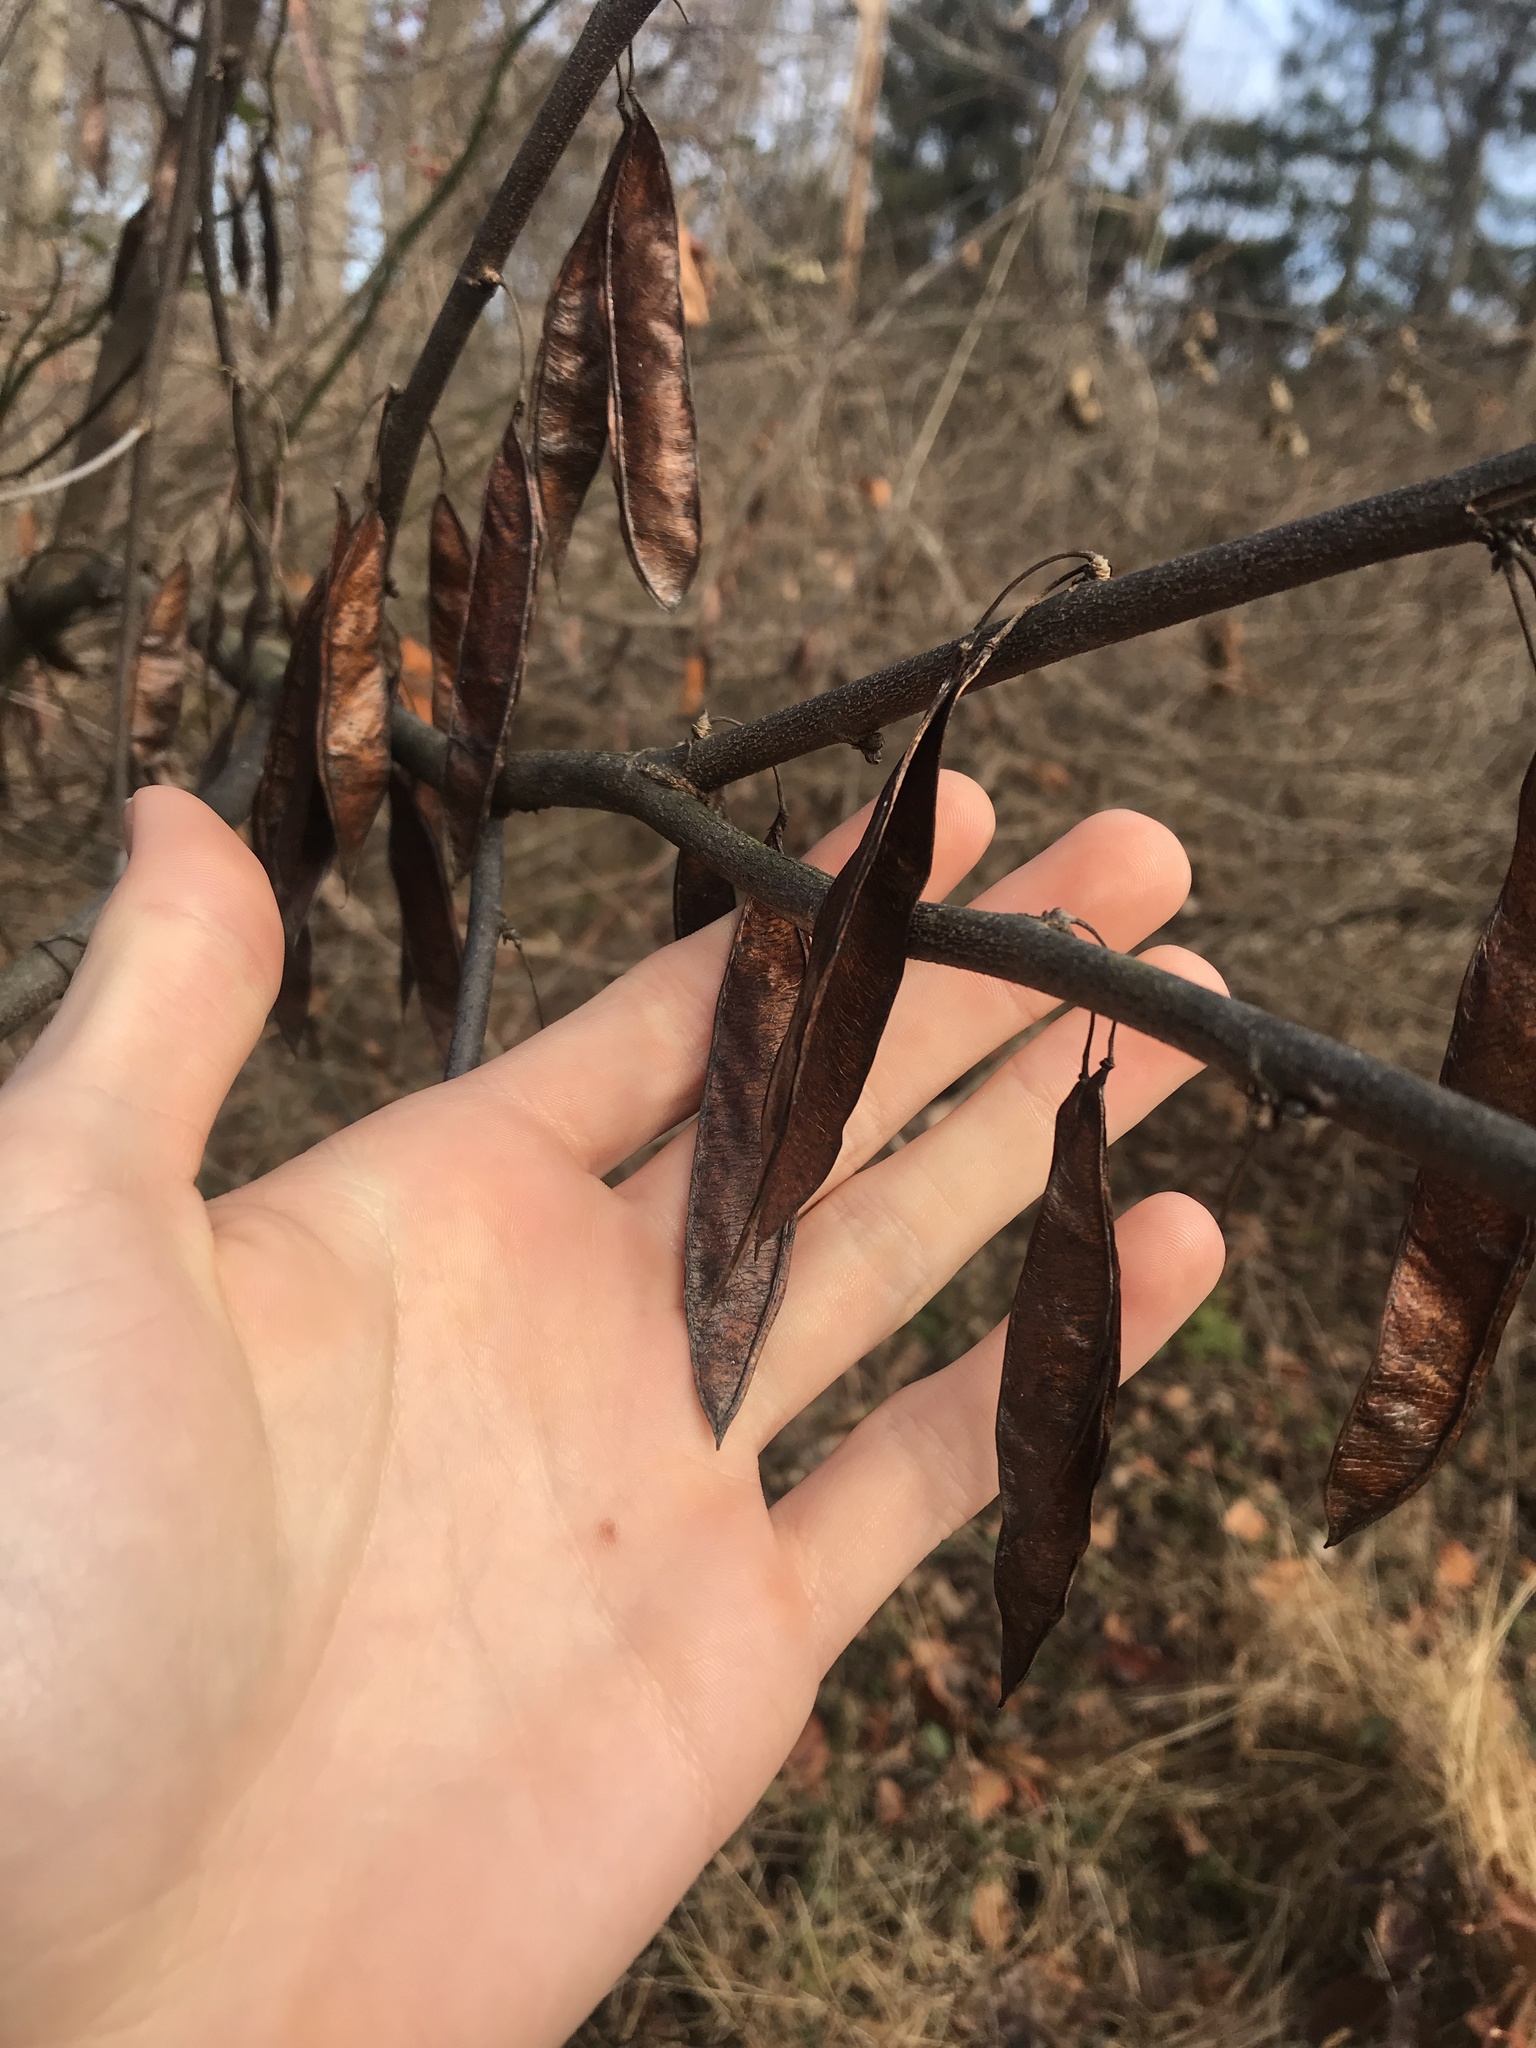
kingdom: Plantae
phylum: Tracheophyta
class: Magnoliopsida
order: Fabales
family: Fabaceae
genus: Cercis
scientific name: Cercis canadensis
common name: Eastern redbud
